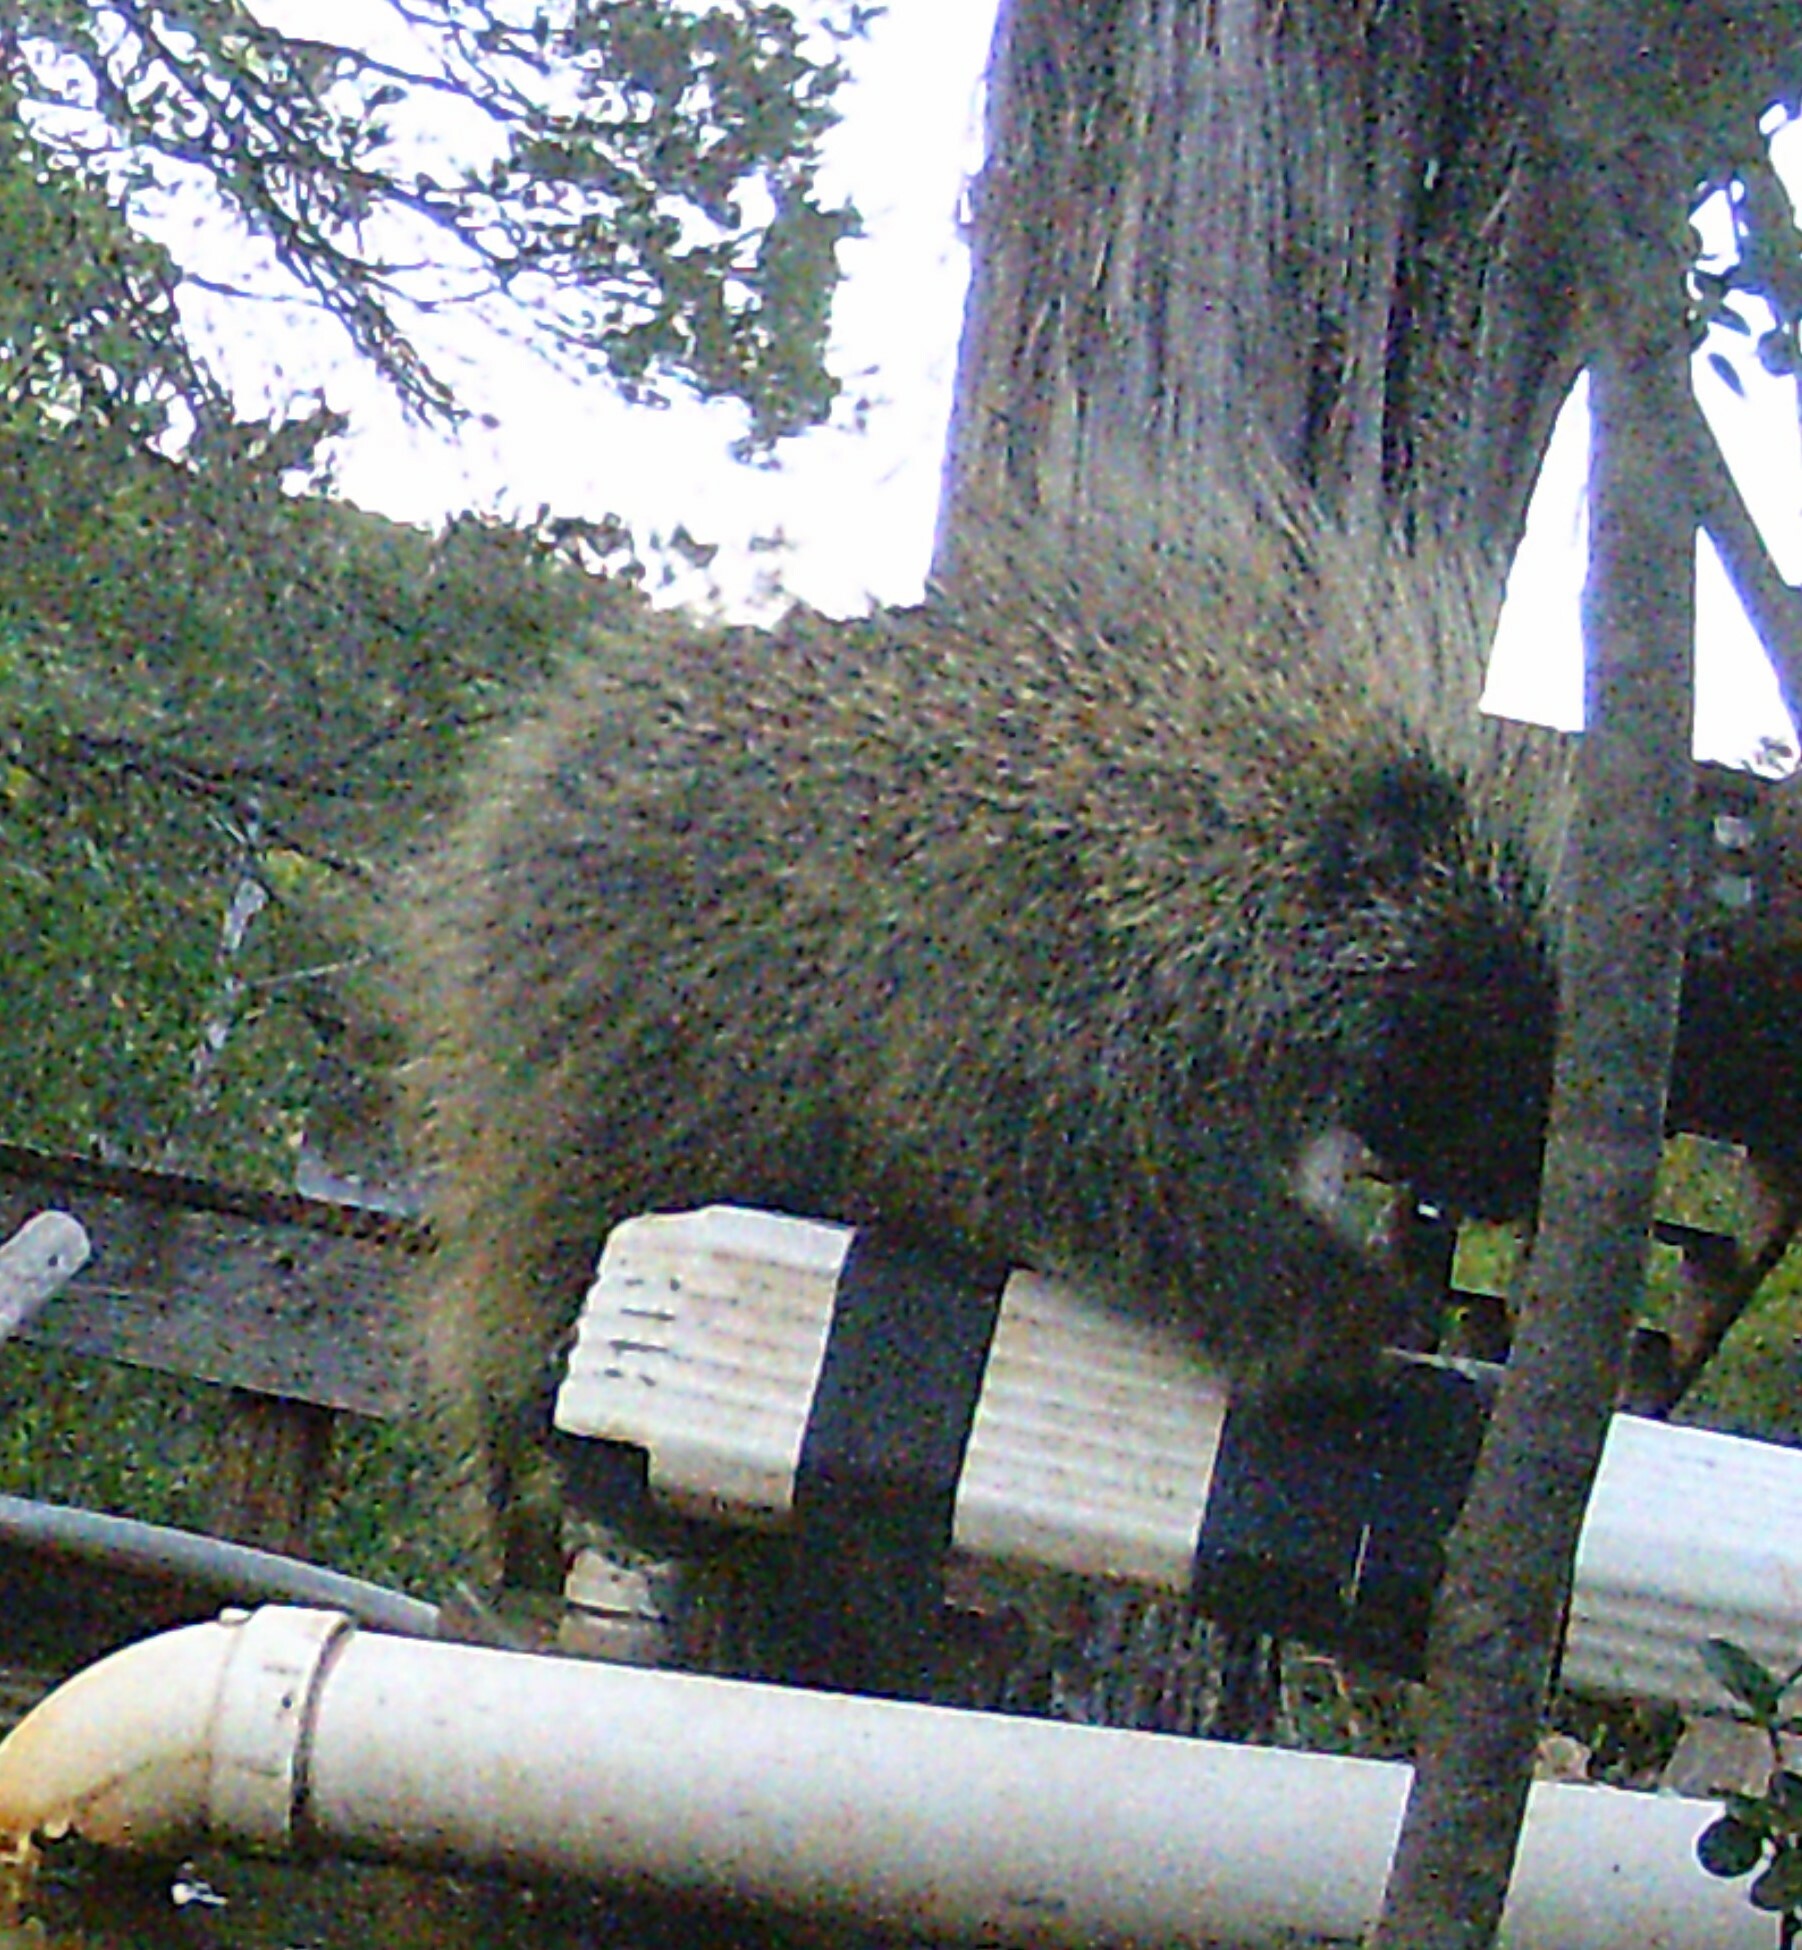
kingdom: Animalia
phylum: Chordata
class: Mammalia
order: Rodentia
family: Erethizontidae
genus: Erethizon
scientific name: Erethizon dorsatus
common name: North american porcupine
